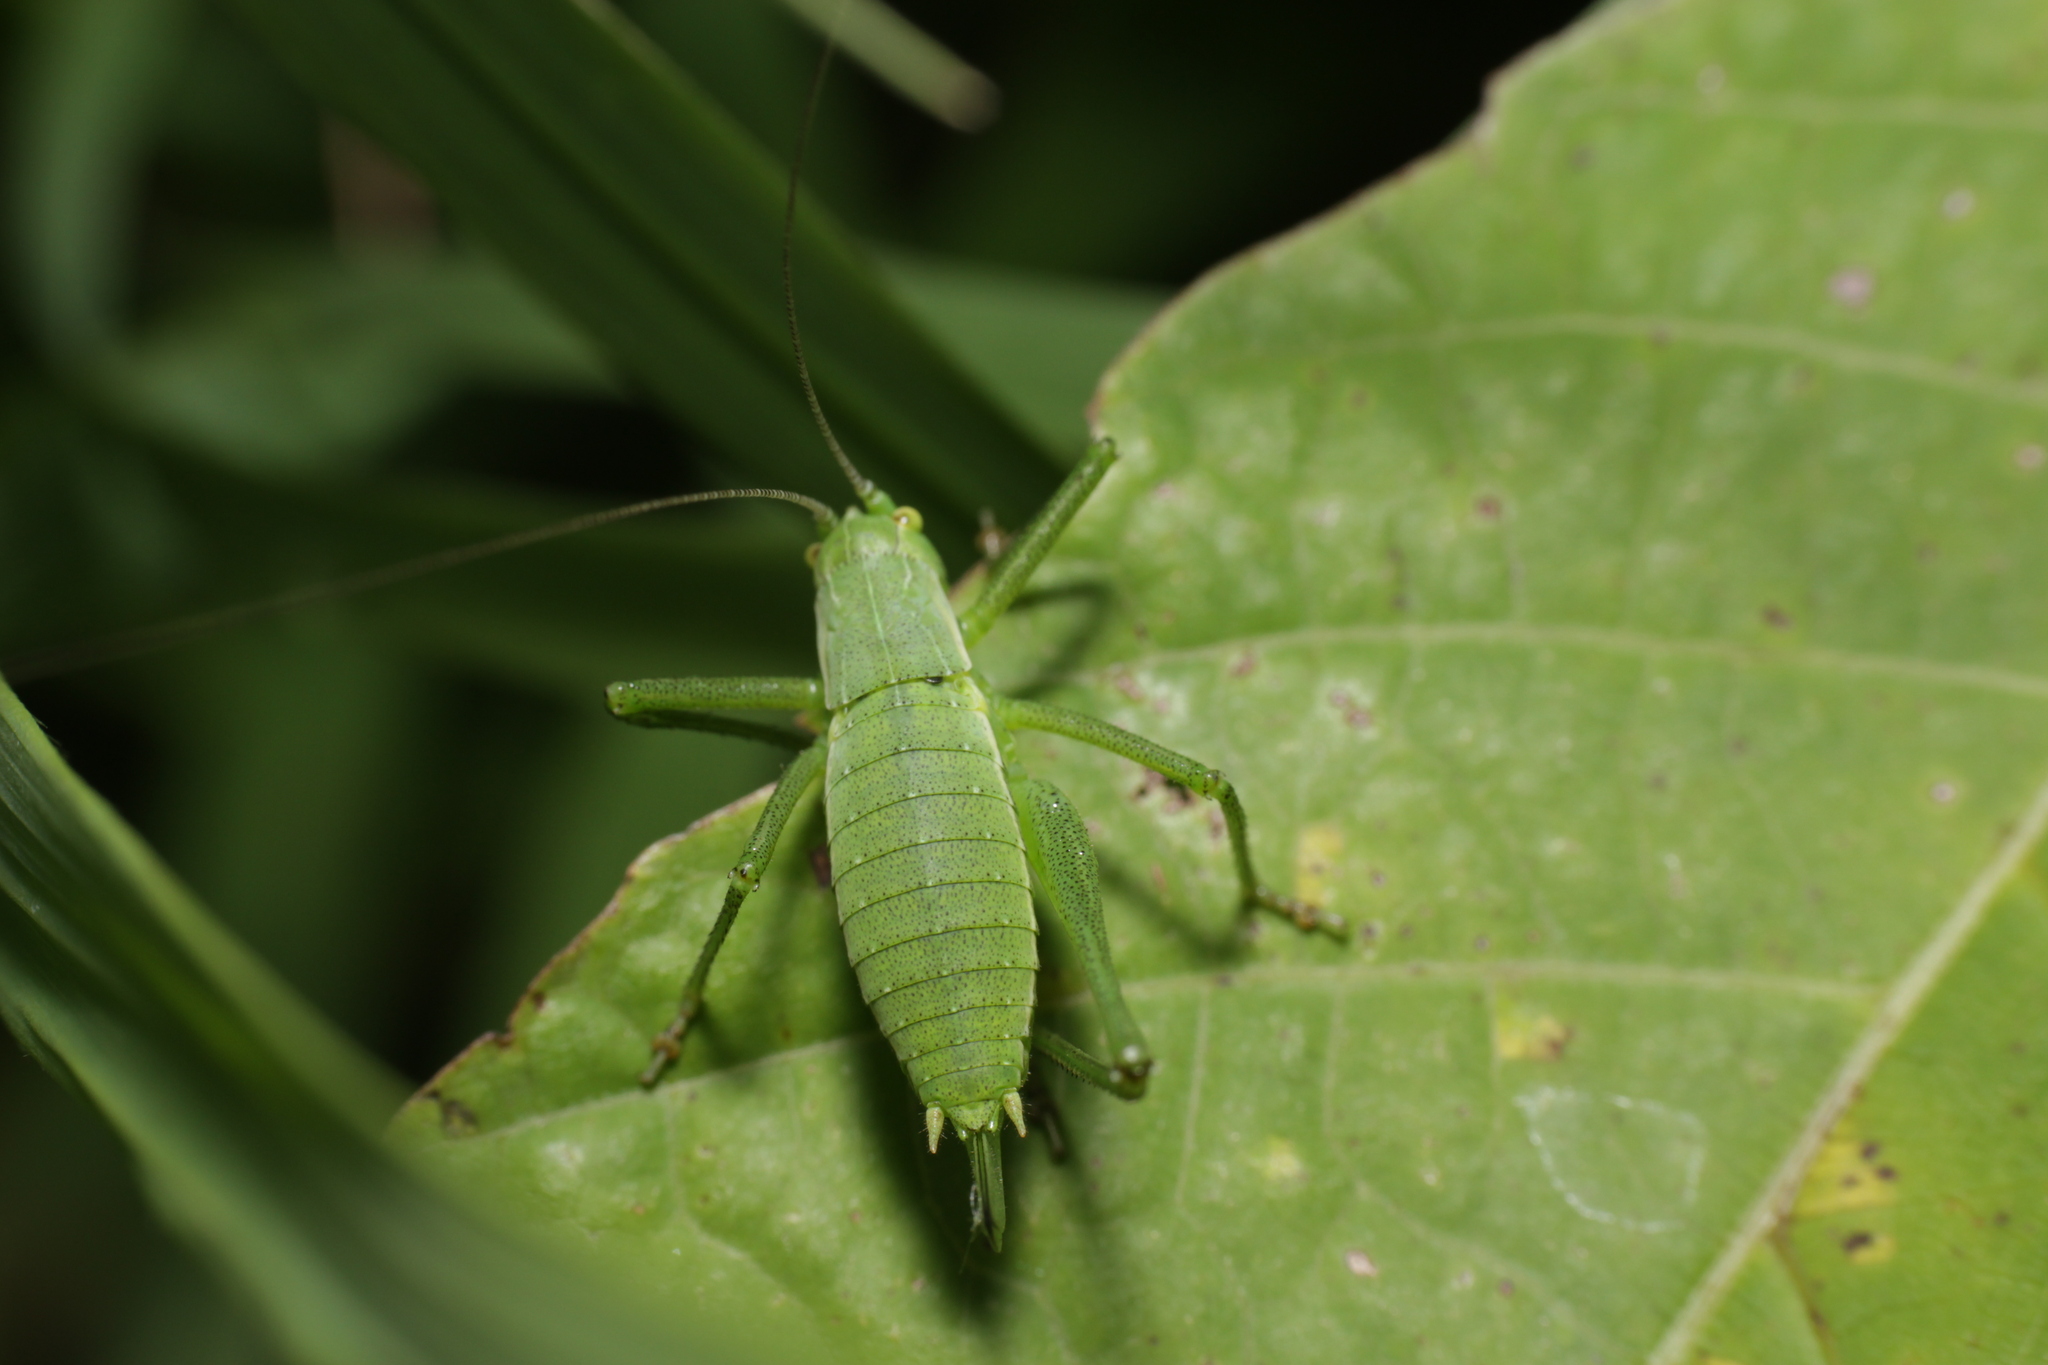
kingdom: Animalia
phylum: Arthropoda
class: Insecta
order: Orthoptera
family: Tettigoniidae
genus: Leptophyes
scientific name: Leptophyes boscii
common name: Balkan speckled bush-cricket
